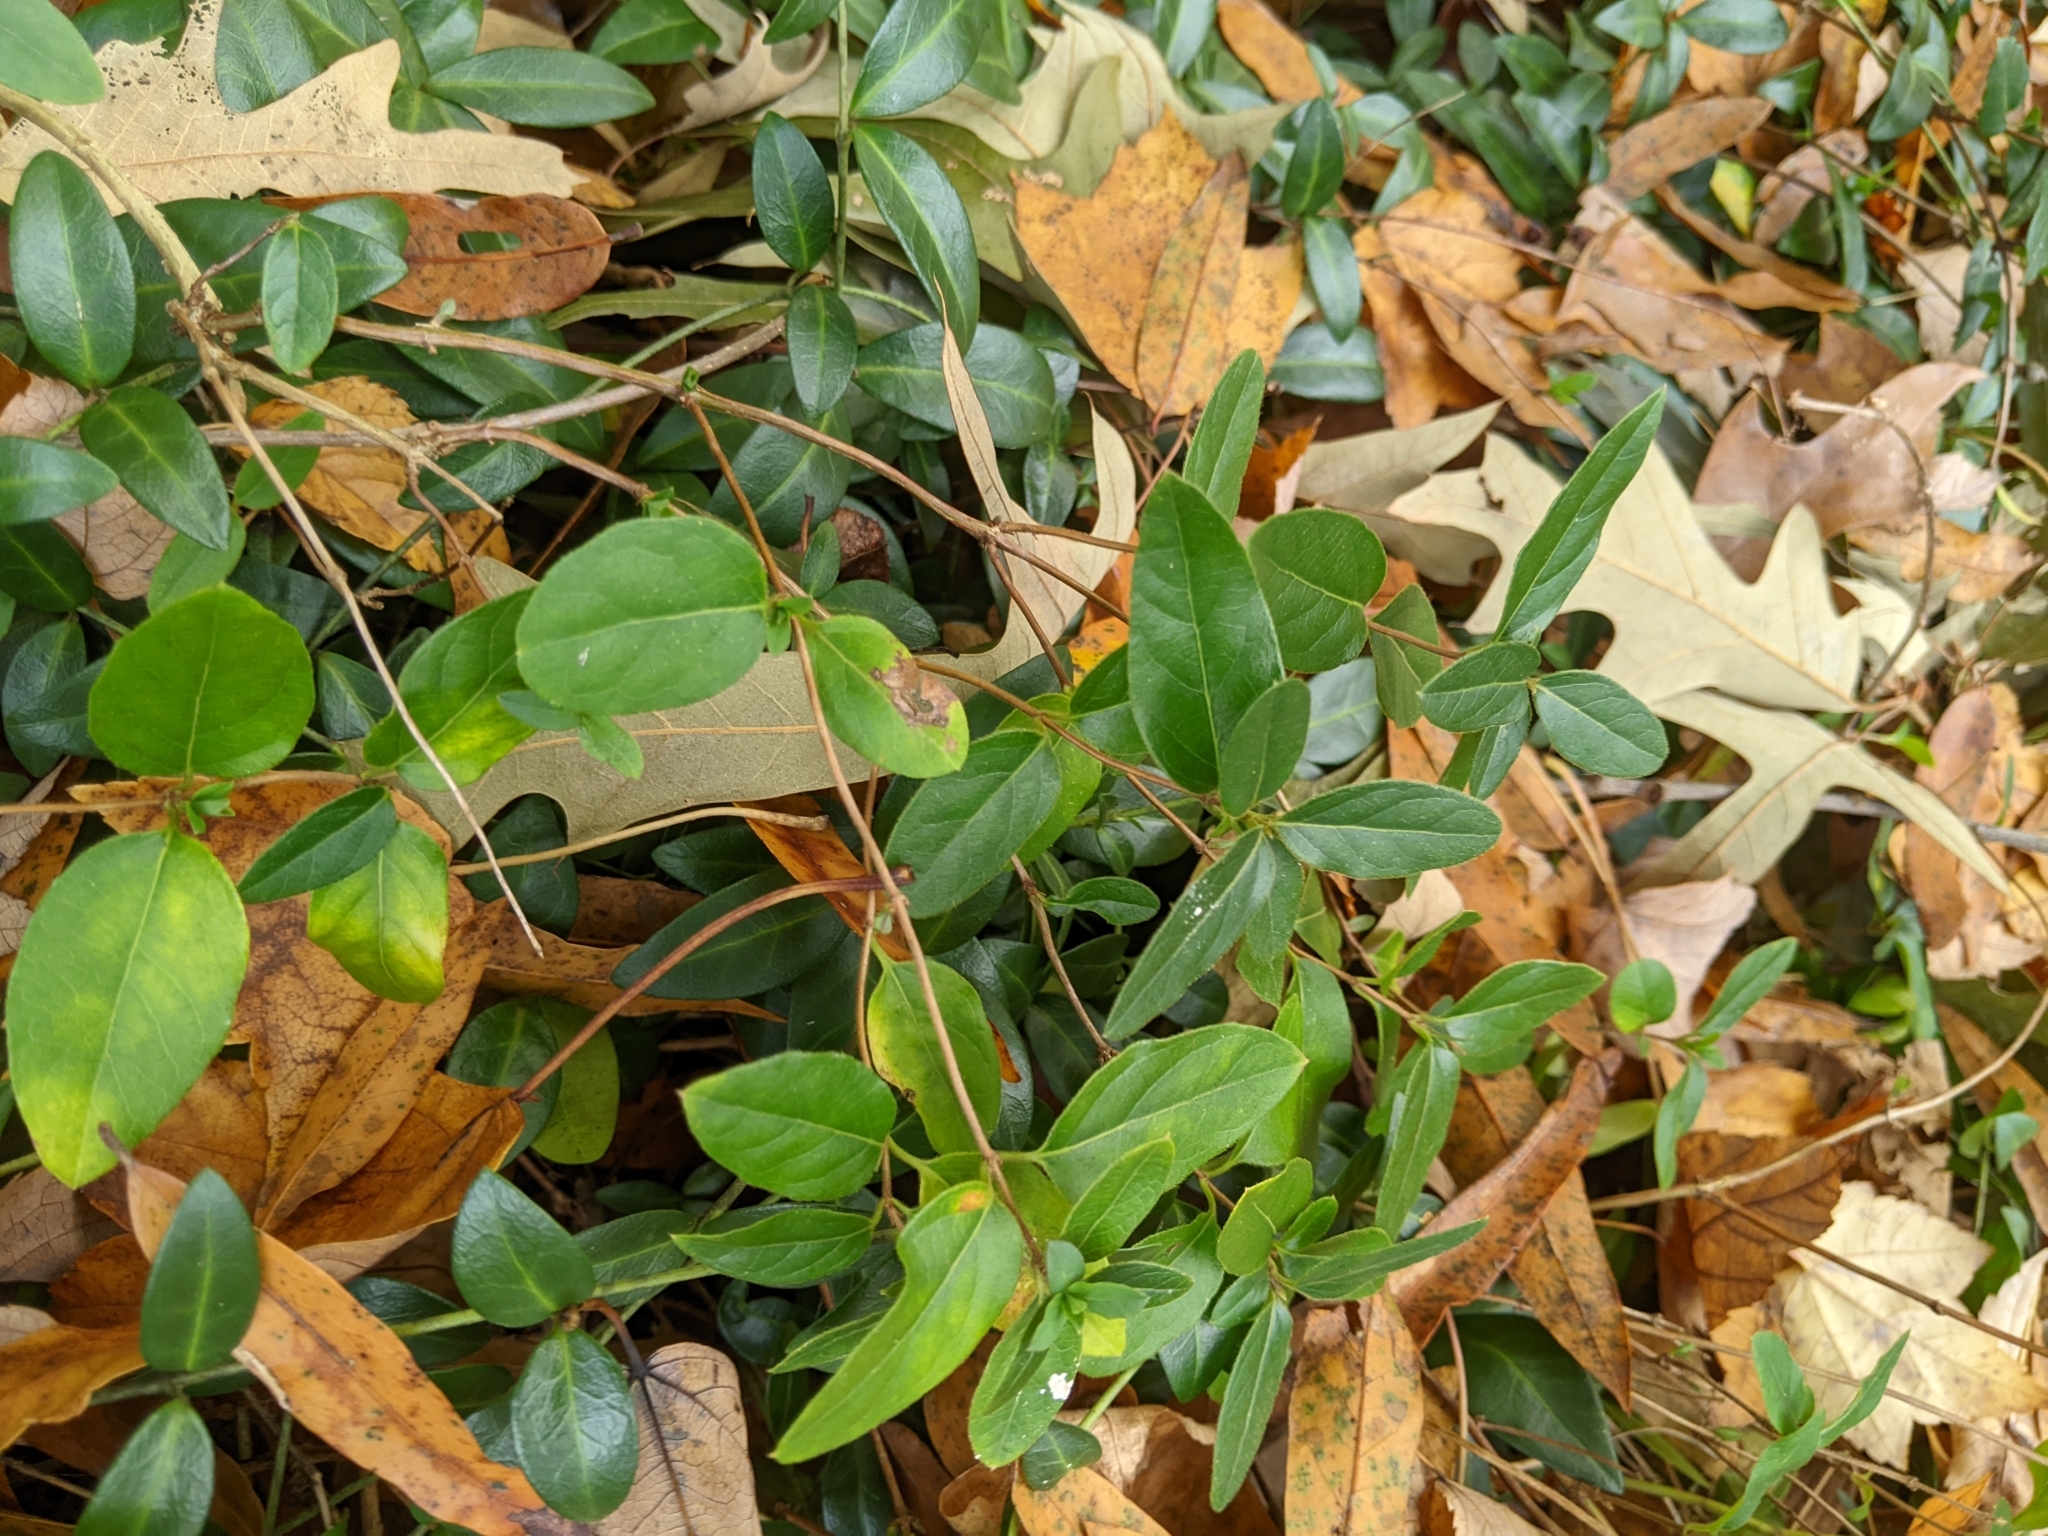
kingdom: Plantae
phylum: Tracheophyta
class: Magnoliopsida
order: Gentianales
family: Apocynaceae
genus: Vinca
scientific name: Vinca major
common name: Greater periwinkle
